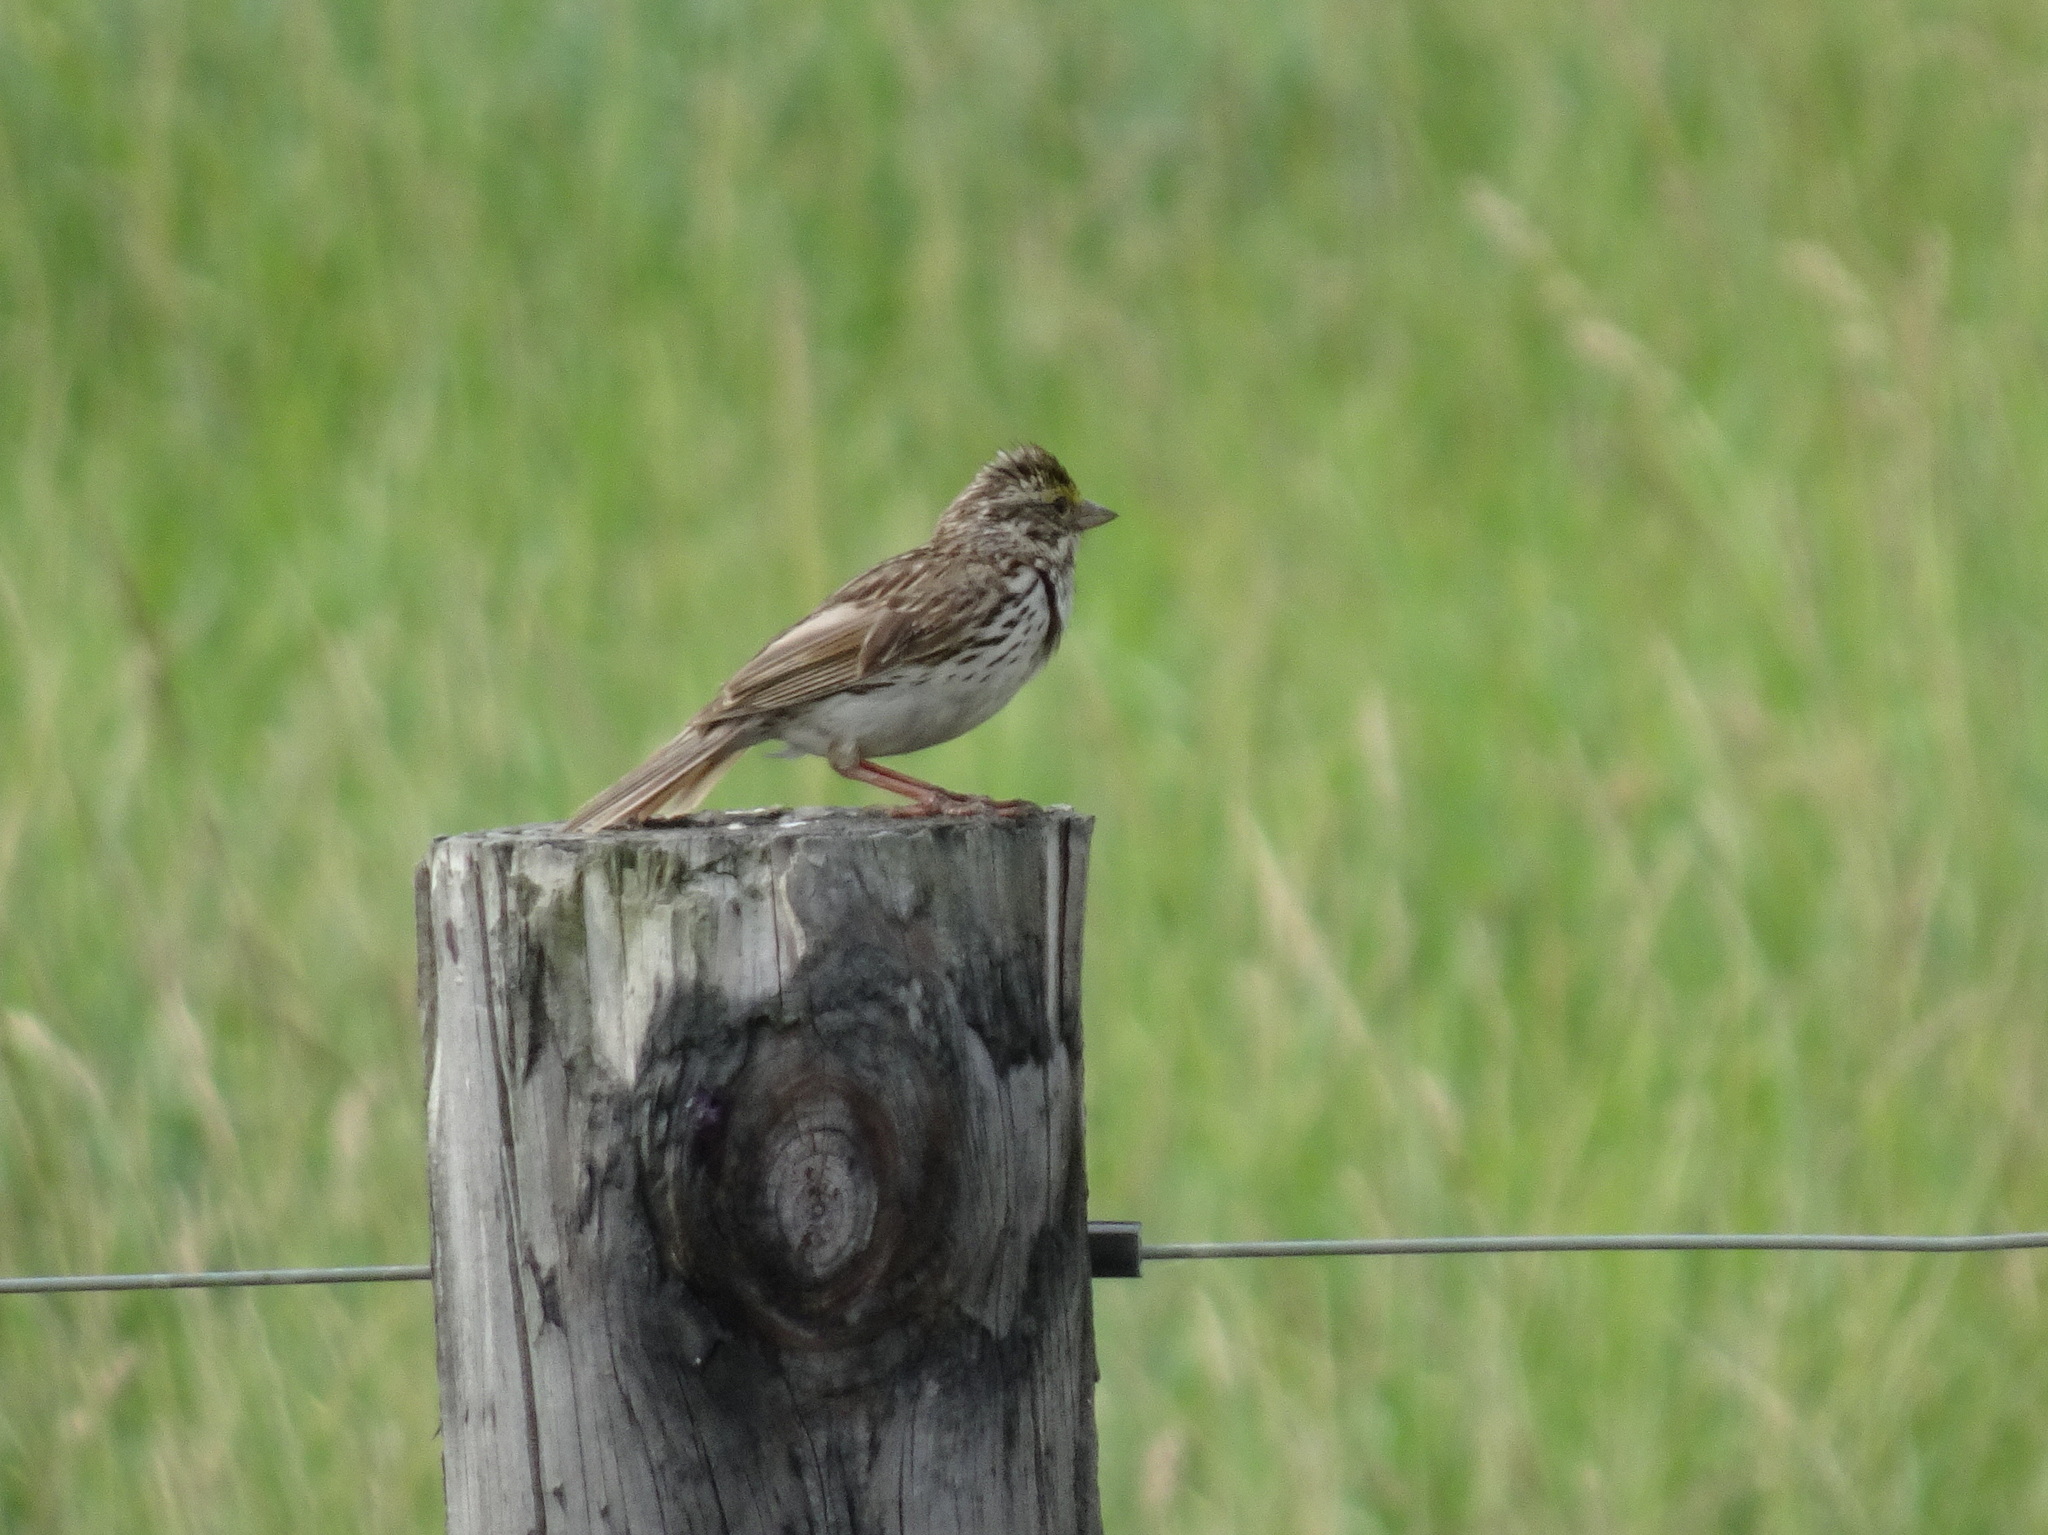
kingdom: Animalia
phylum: Chordata
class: Aves
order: Passeriformes
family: Passerellidae
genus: Passerculus
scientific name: Passerculus sandwichensis
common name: Savannah sparrow
